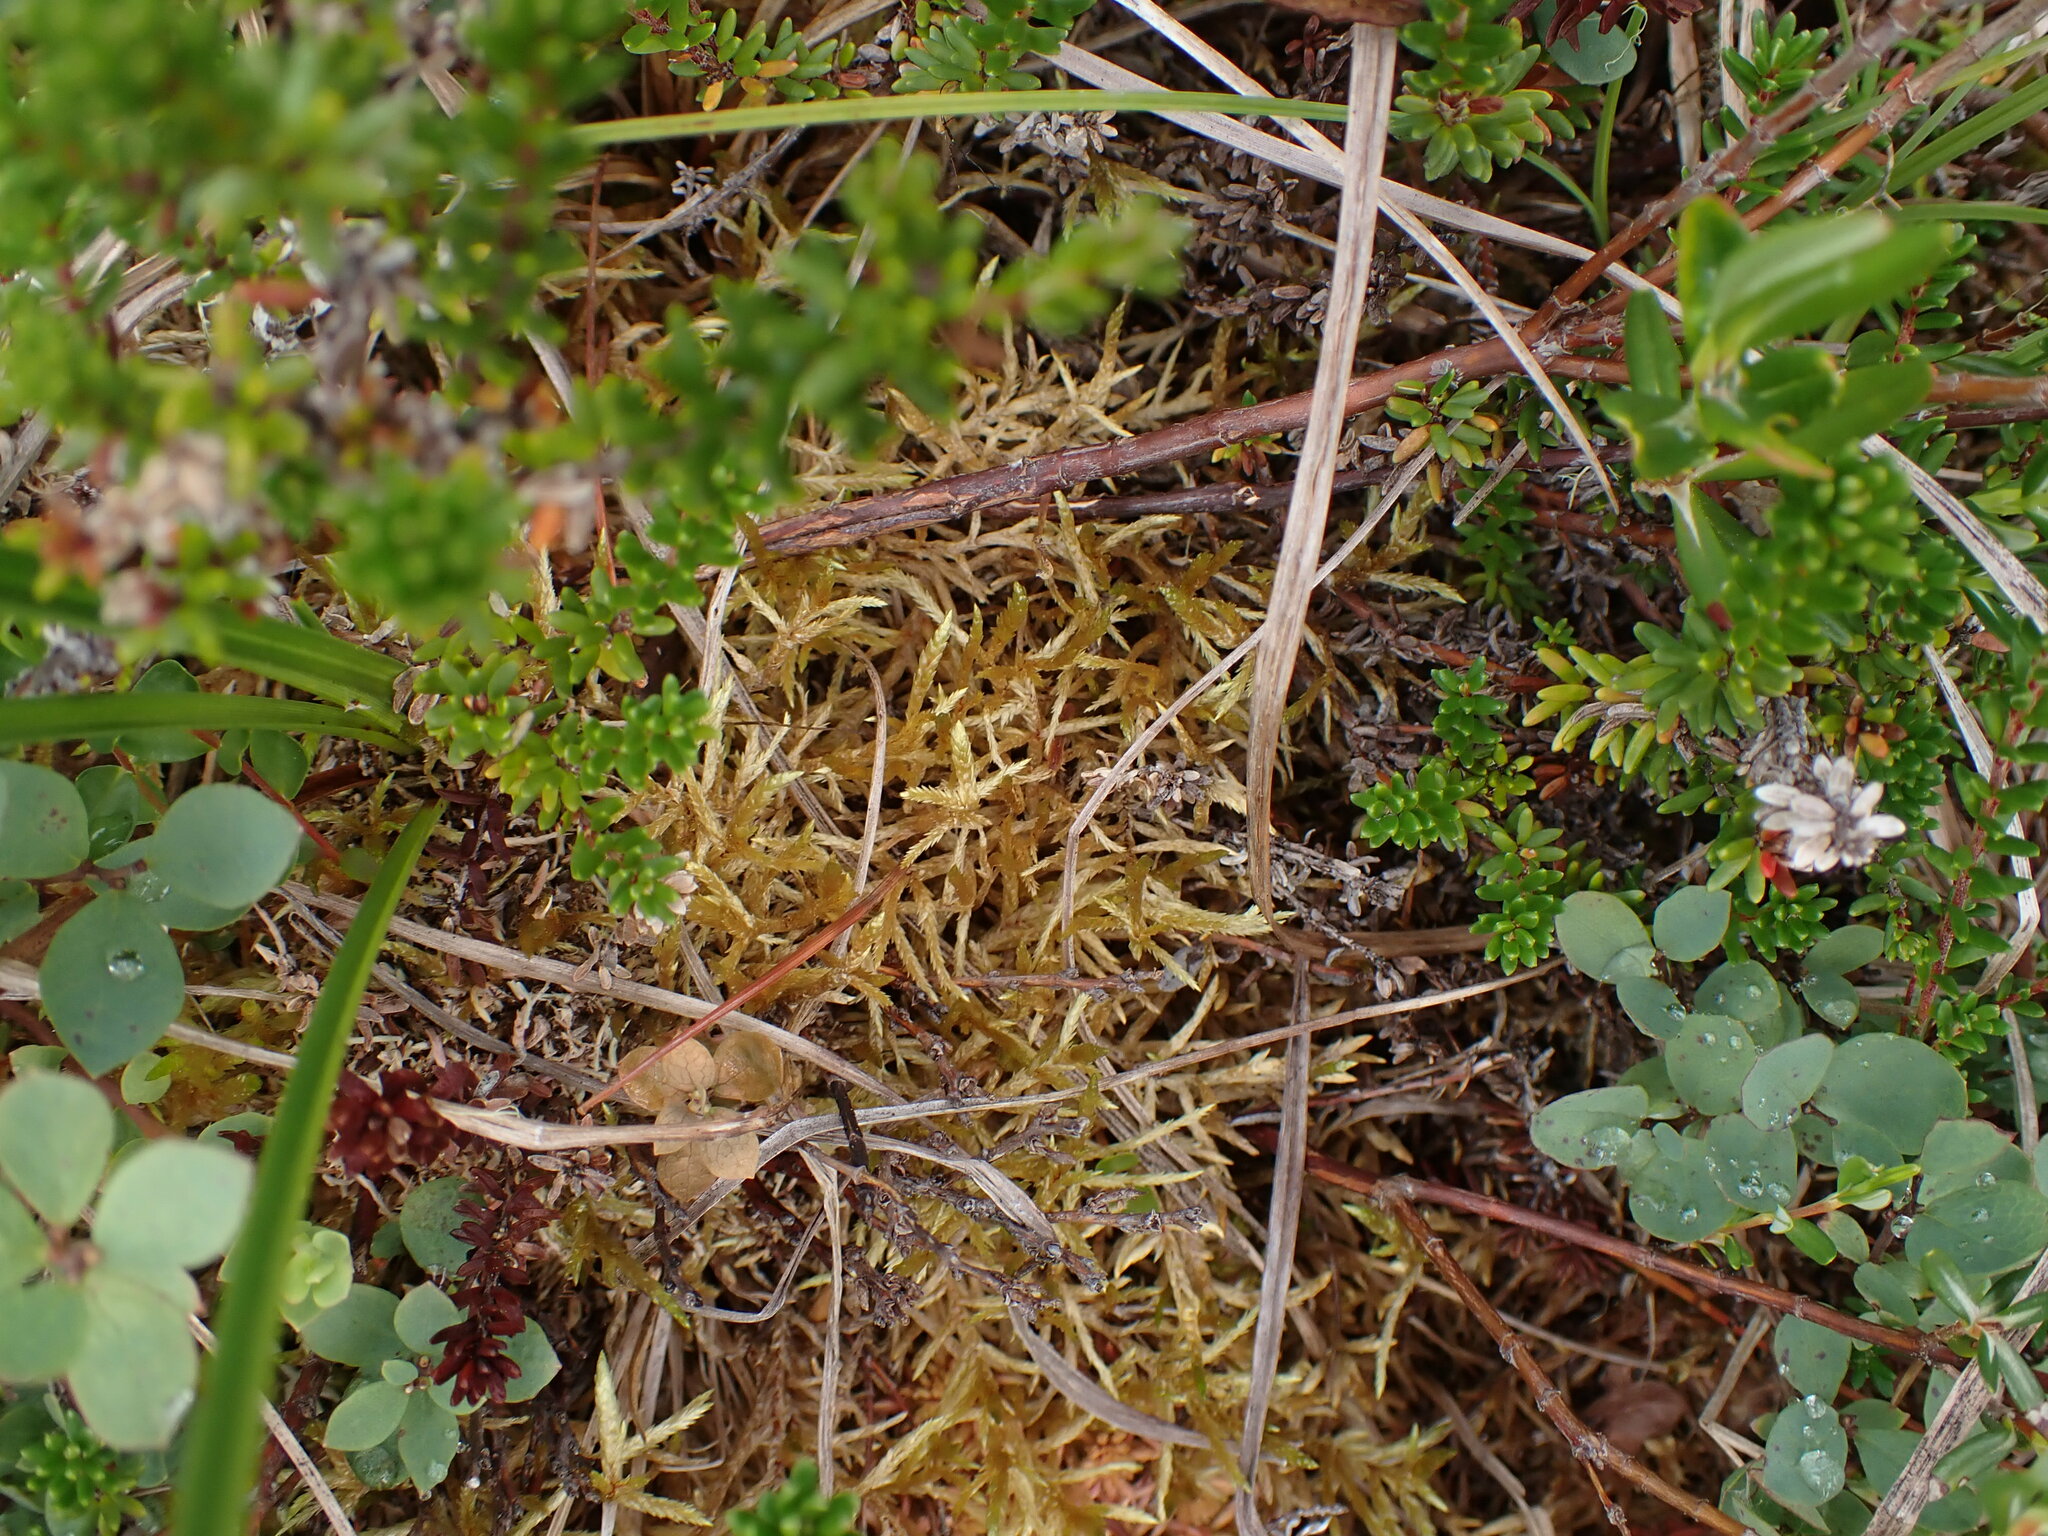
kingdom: Plantae
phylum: Bryophyta
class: Bryopsida
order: Hypnales
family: Hylocomiaceae
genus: Pleurozium
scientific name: Pleurozium schreberi
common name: Red-stemmed feather moss
